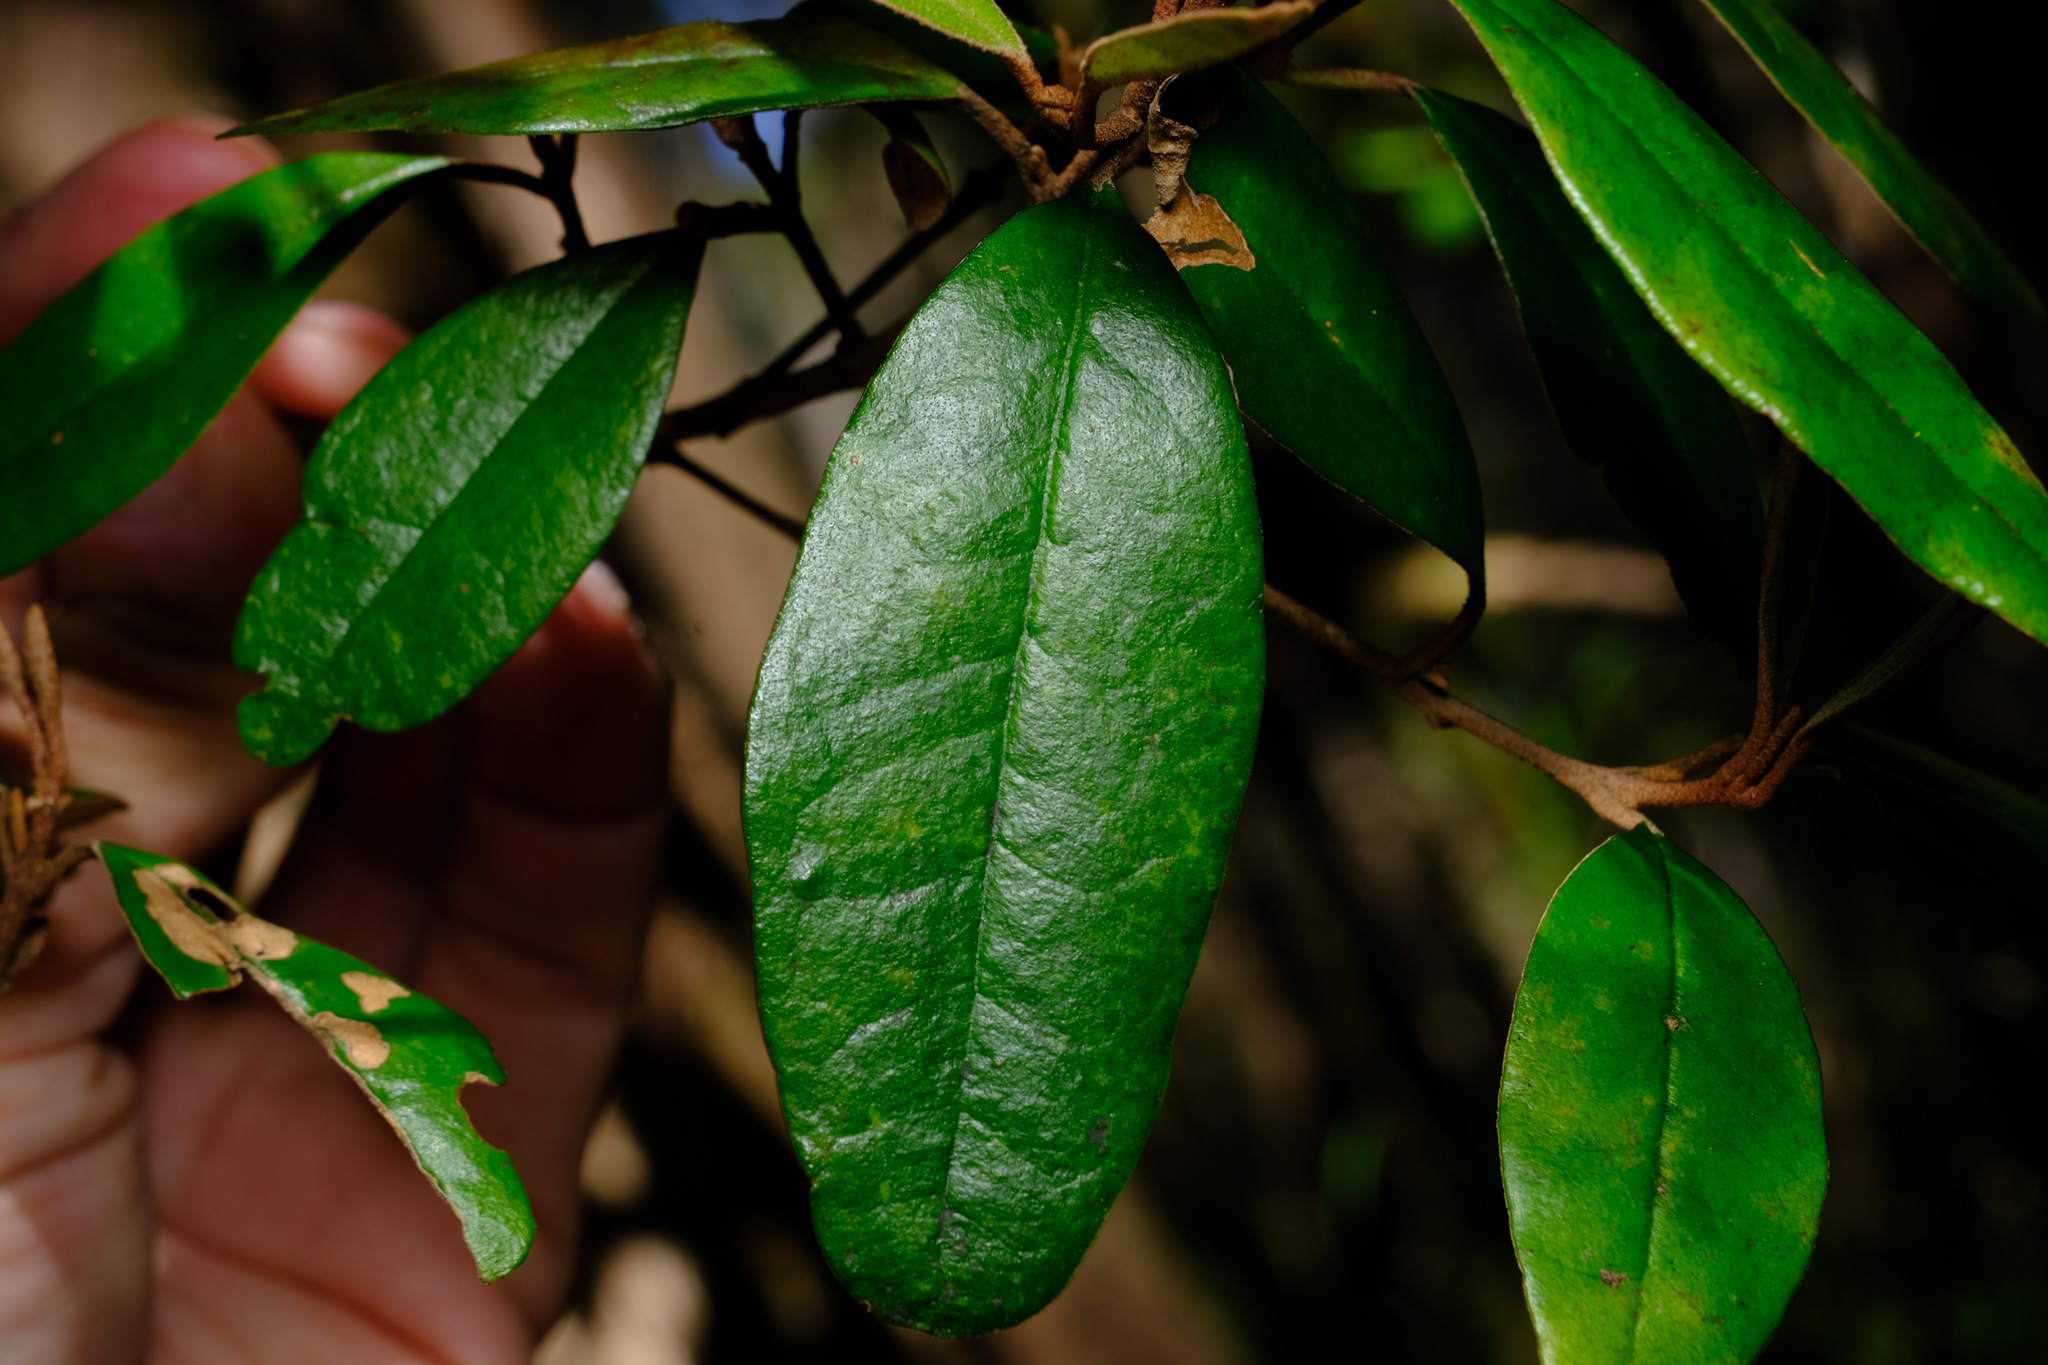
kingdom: Plantae
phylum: Tracheophyta
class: Magnoliopsida
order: Sapindales
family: Rutaceae
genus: Correa
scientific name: Correa lawrenceana
